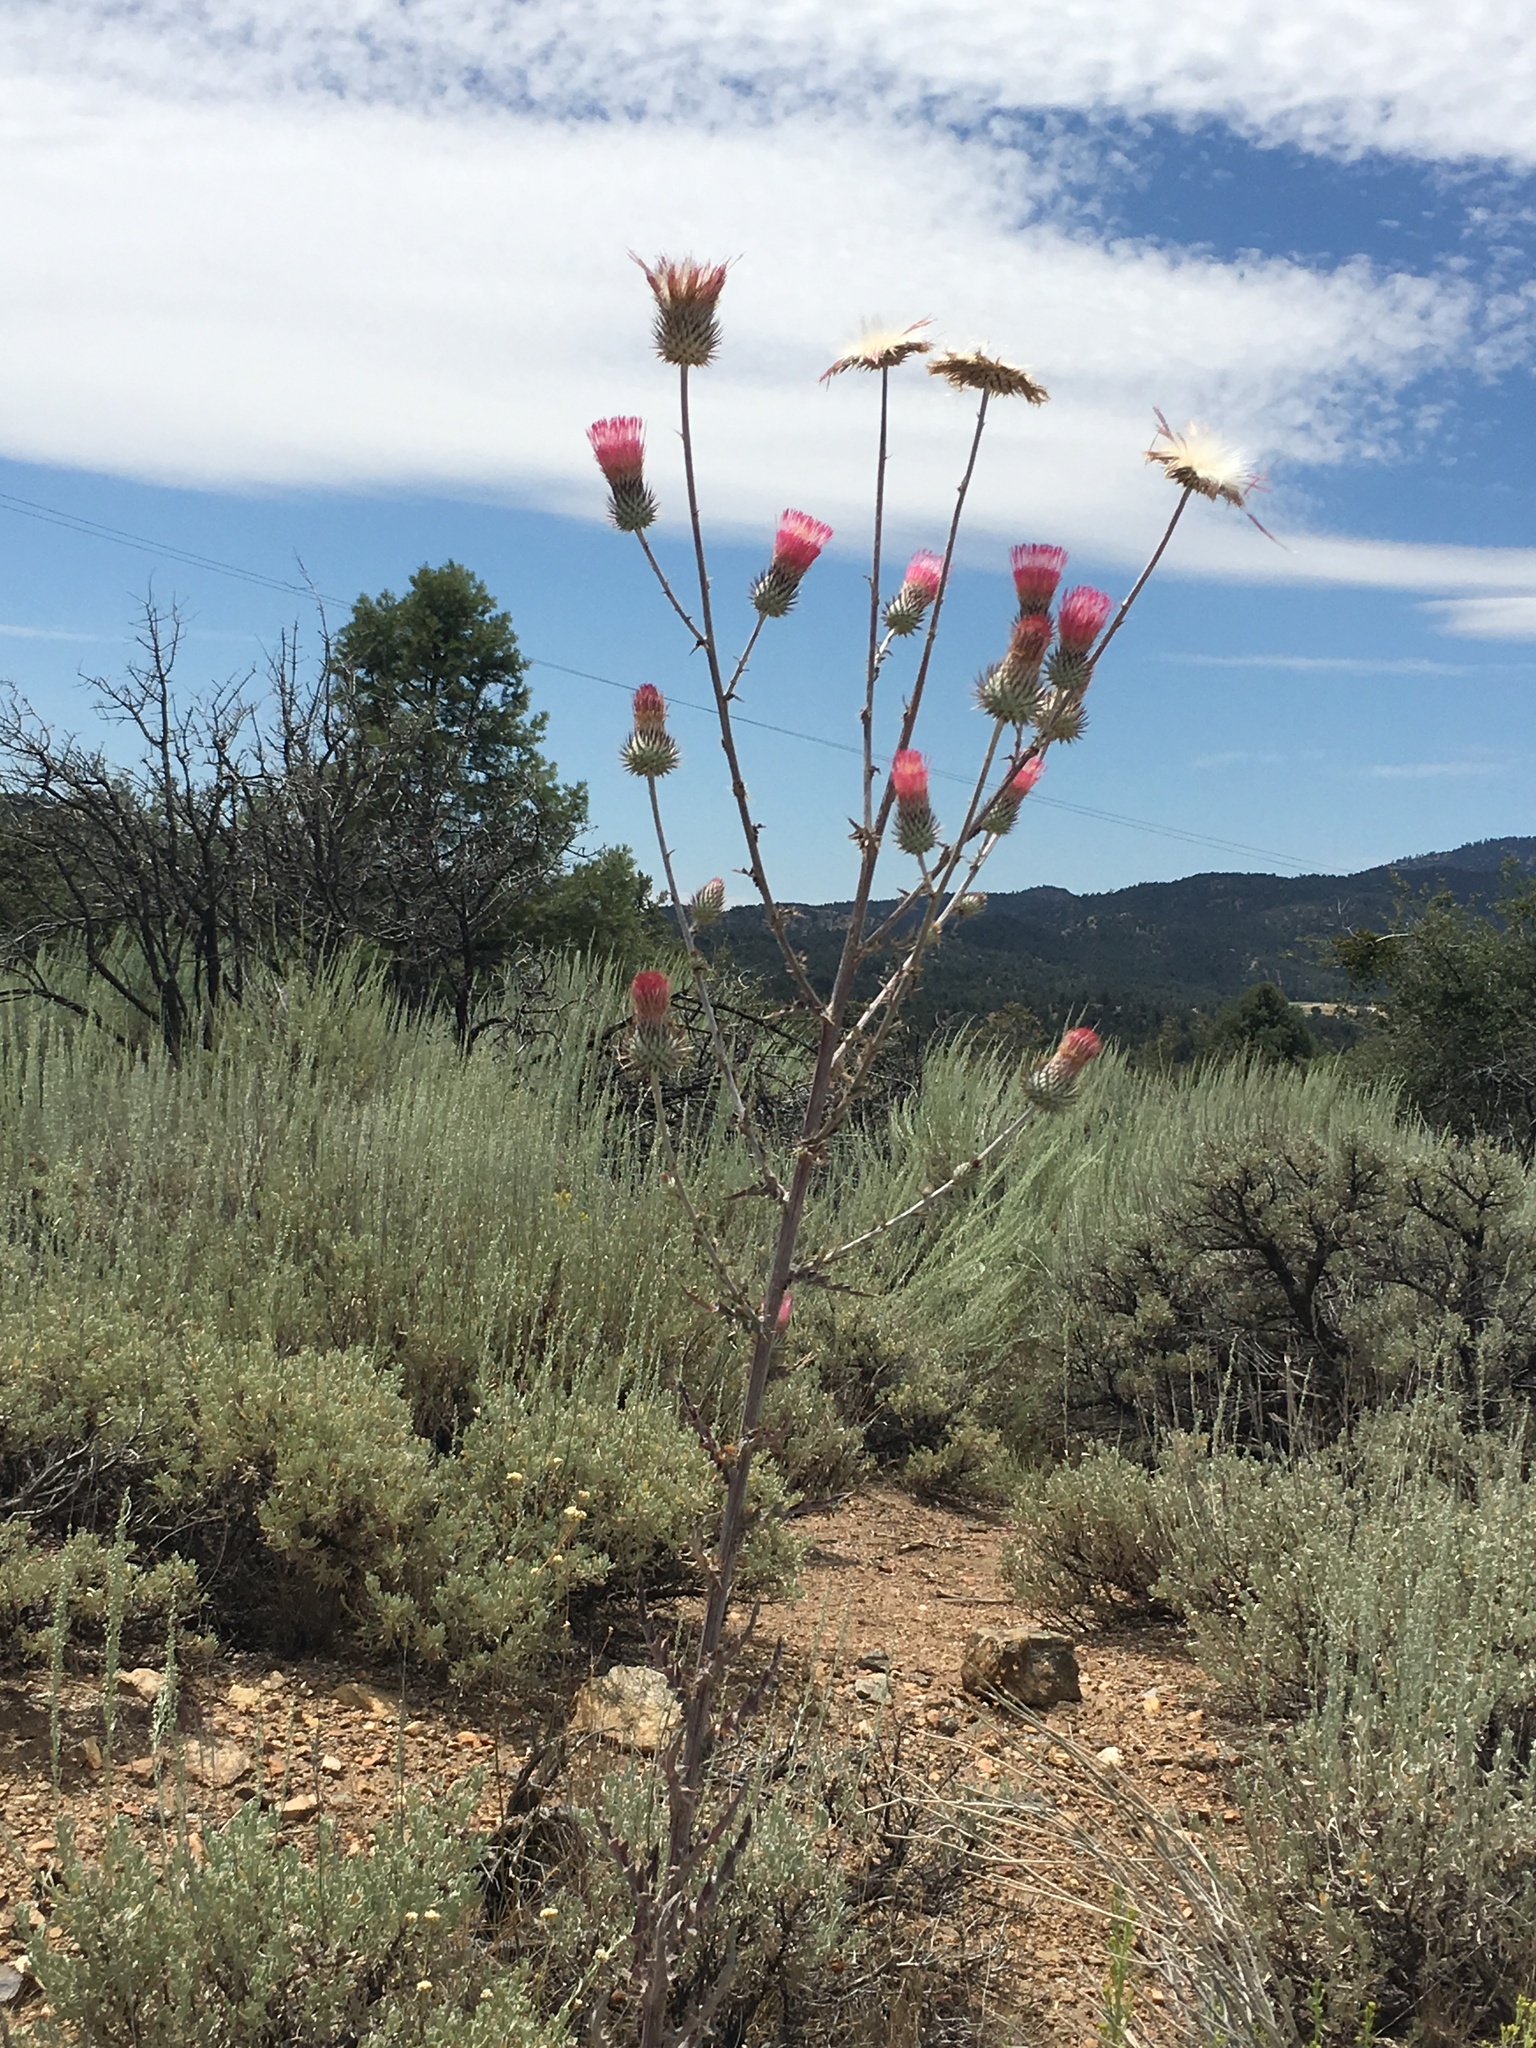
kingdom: Plantae
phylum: Tracheophyta
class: Magnoliopsida
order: Asterales
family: Asteraceae
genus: Cirsium
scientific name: Cirsium occidentale
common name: Western thistle
